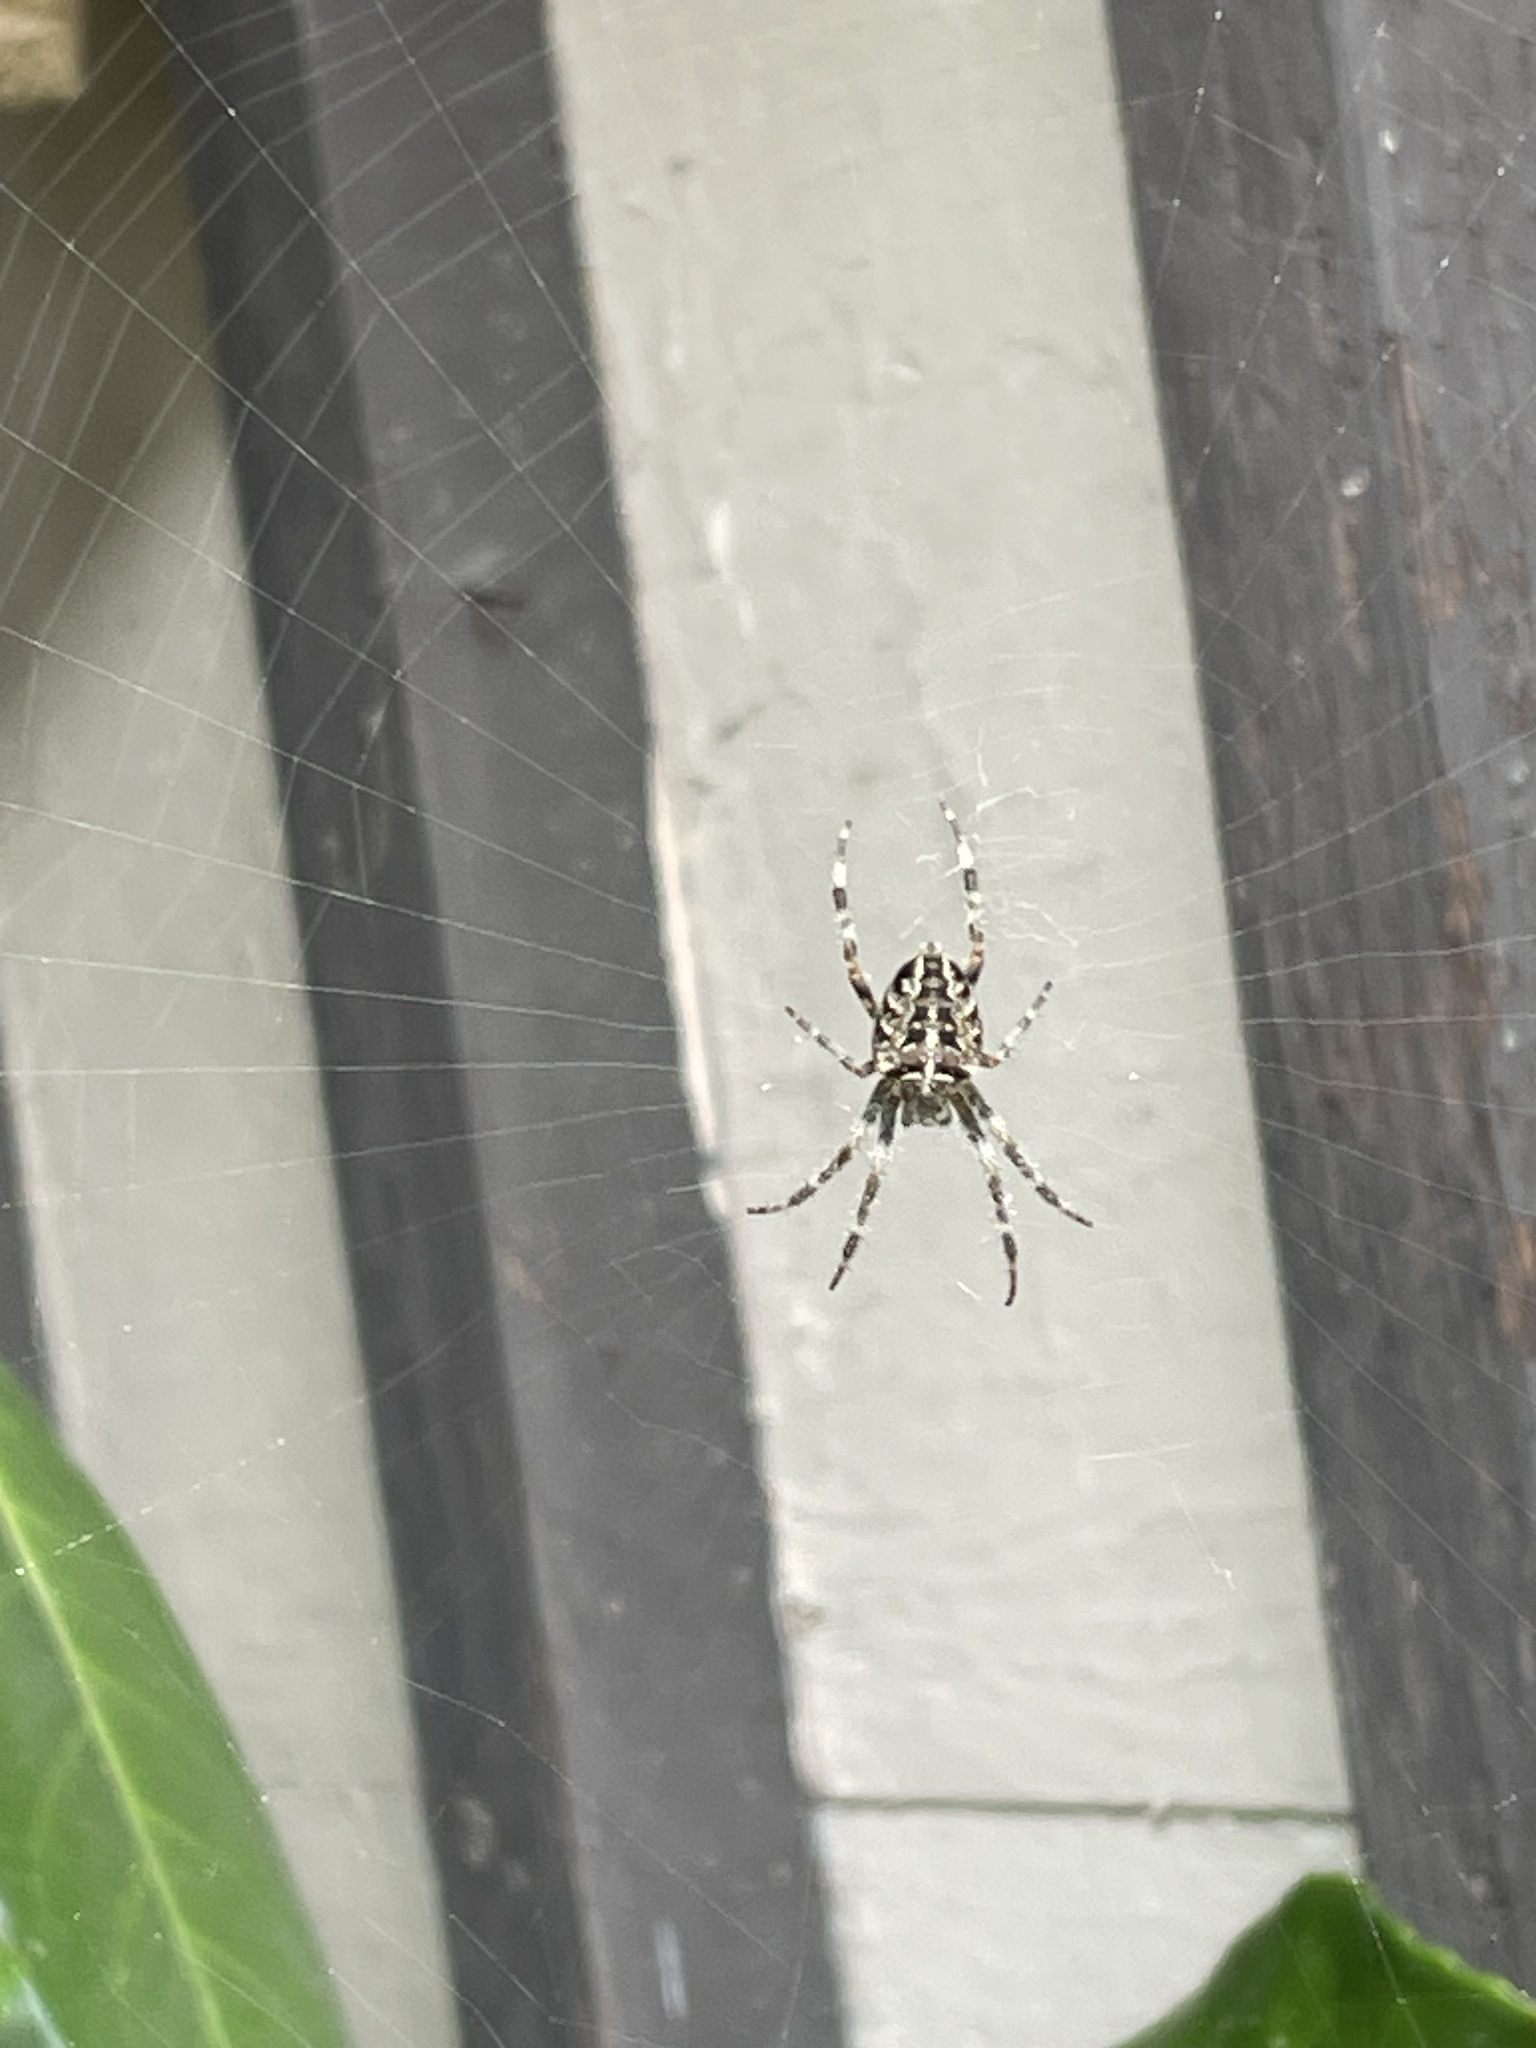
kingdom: Animalia
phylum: Arthropoda
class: Arachnida
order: Araneae
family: Araneidae
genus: Araneus
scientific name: Araneus diadematus
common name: Cross orbweaver
